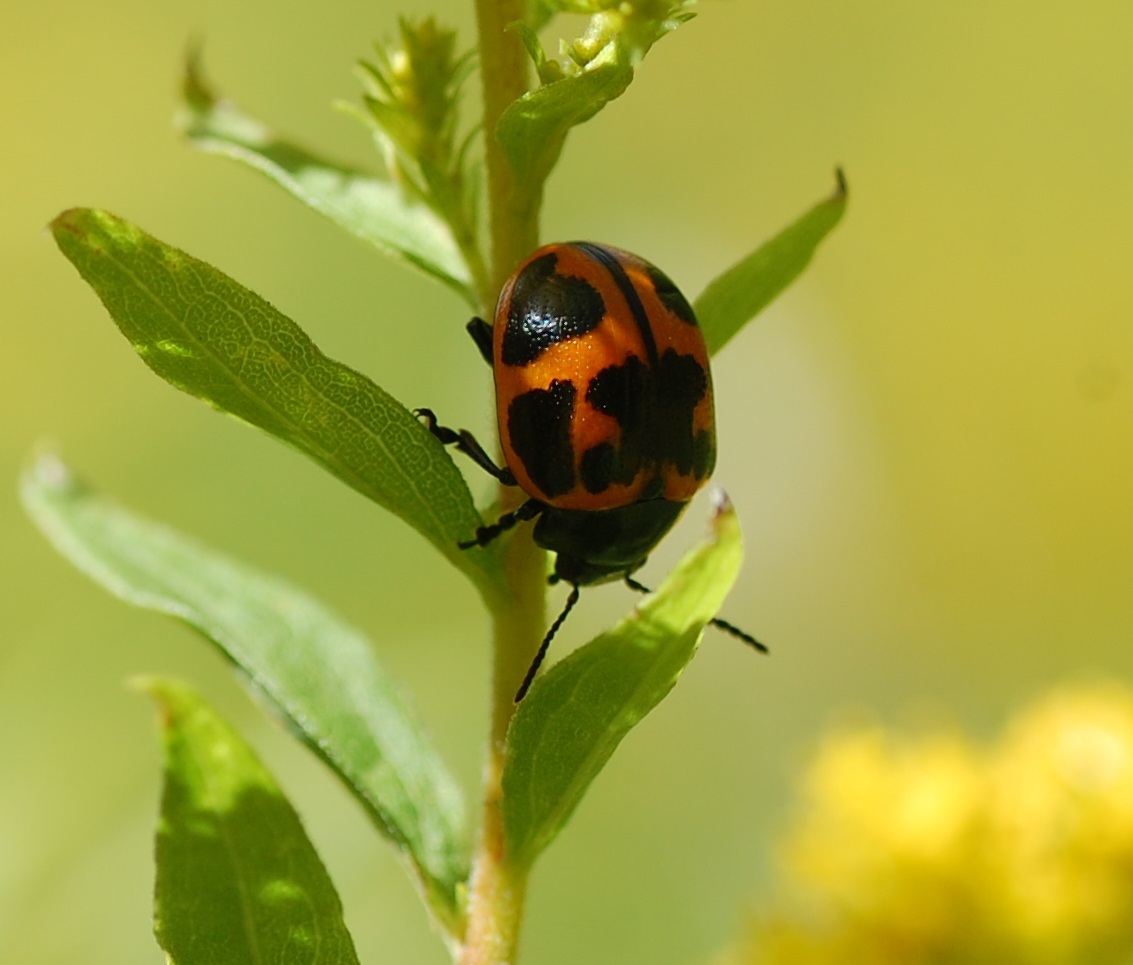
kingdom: Animalia
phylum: Arthropoda
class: Insecta
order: Coleoptera
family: Chrysomelidae
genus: Labidomera
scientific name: Labidomera clivicollis
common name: Swamp milkweed leaf beetle
